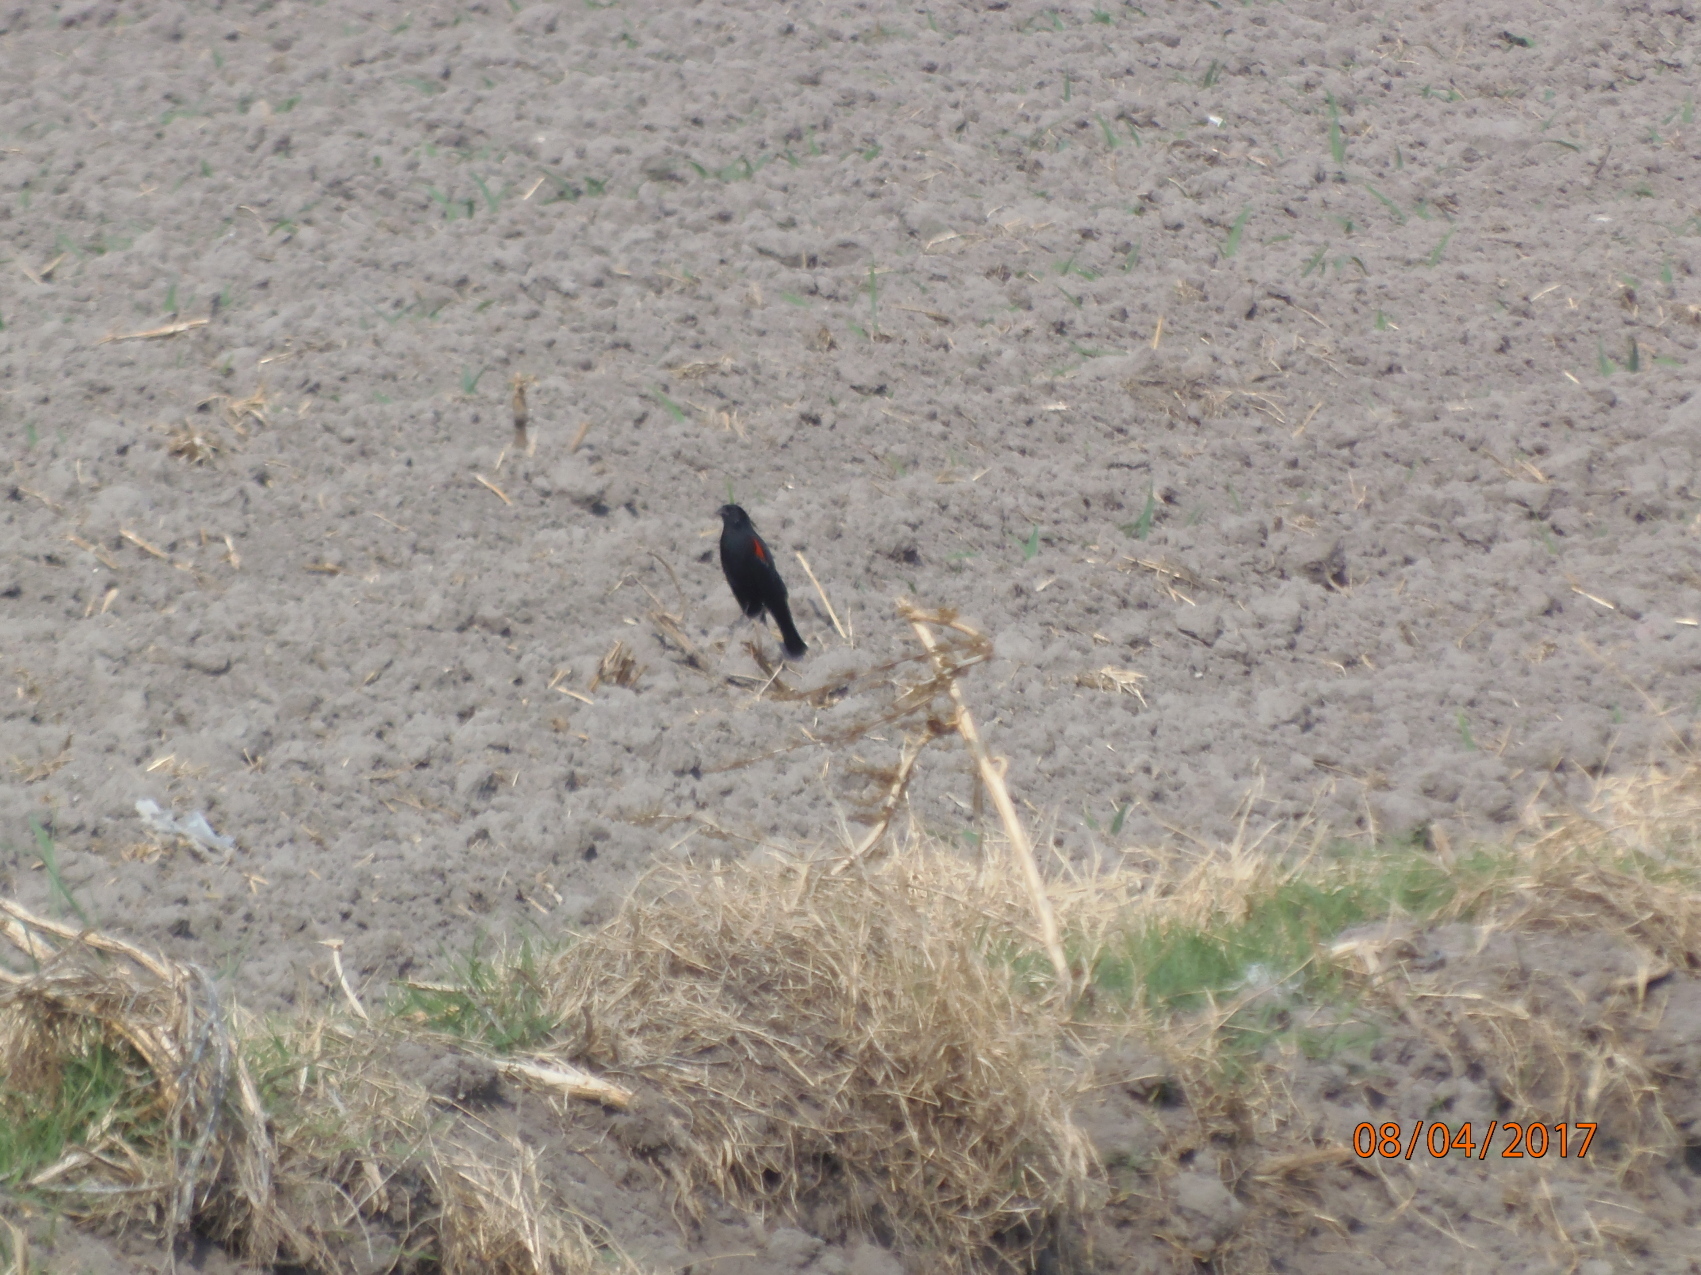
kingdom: Animalia
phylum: Chordata
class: Aves
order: Passeriformes
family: Icteridae
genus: Agelaius
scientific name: Agelaius phoeniceus
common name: Red-winged blackbird
